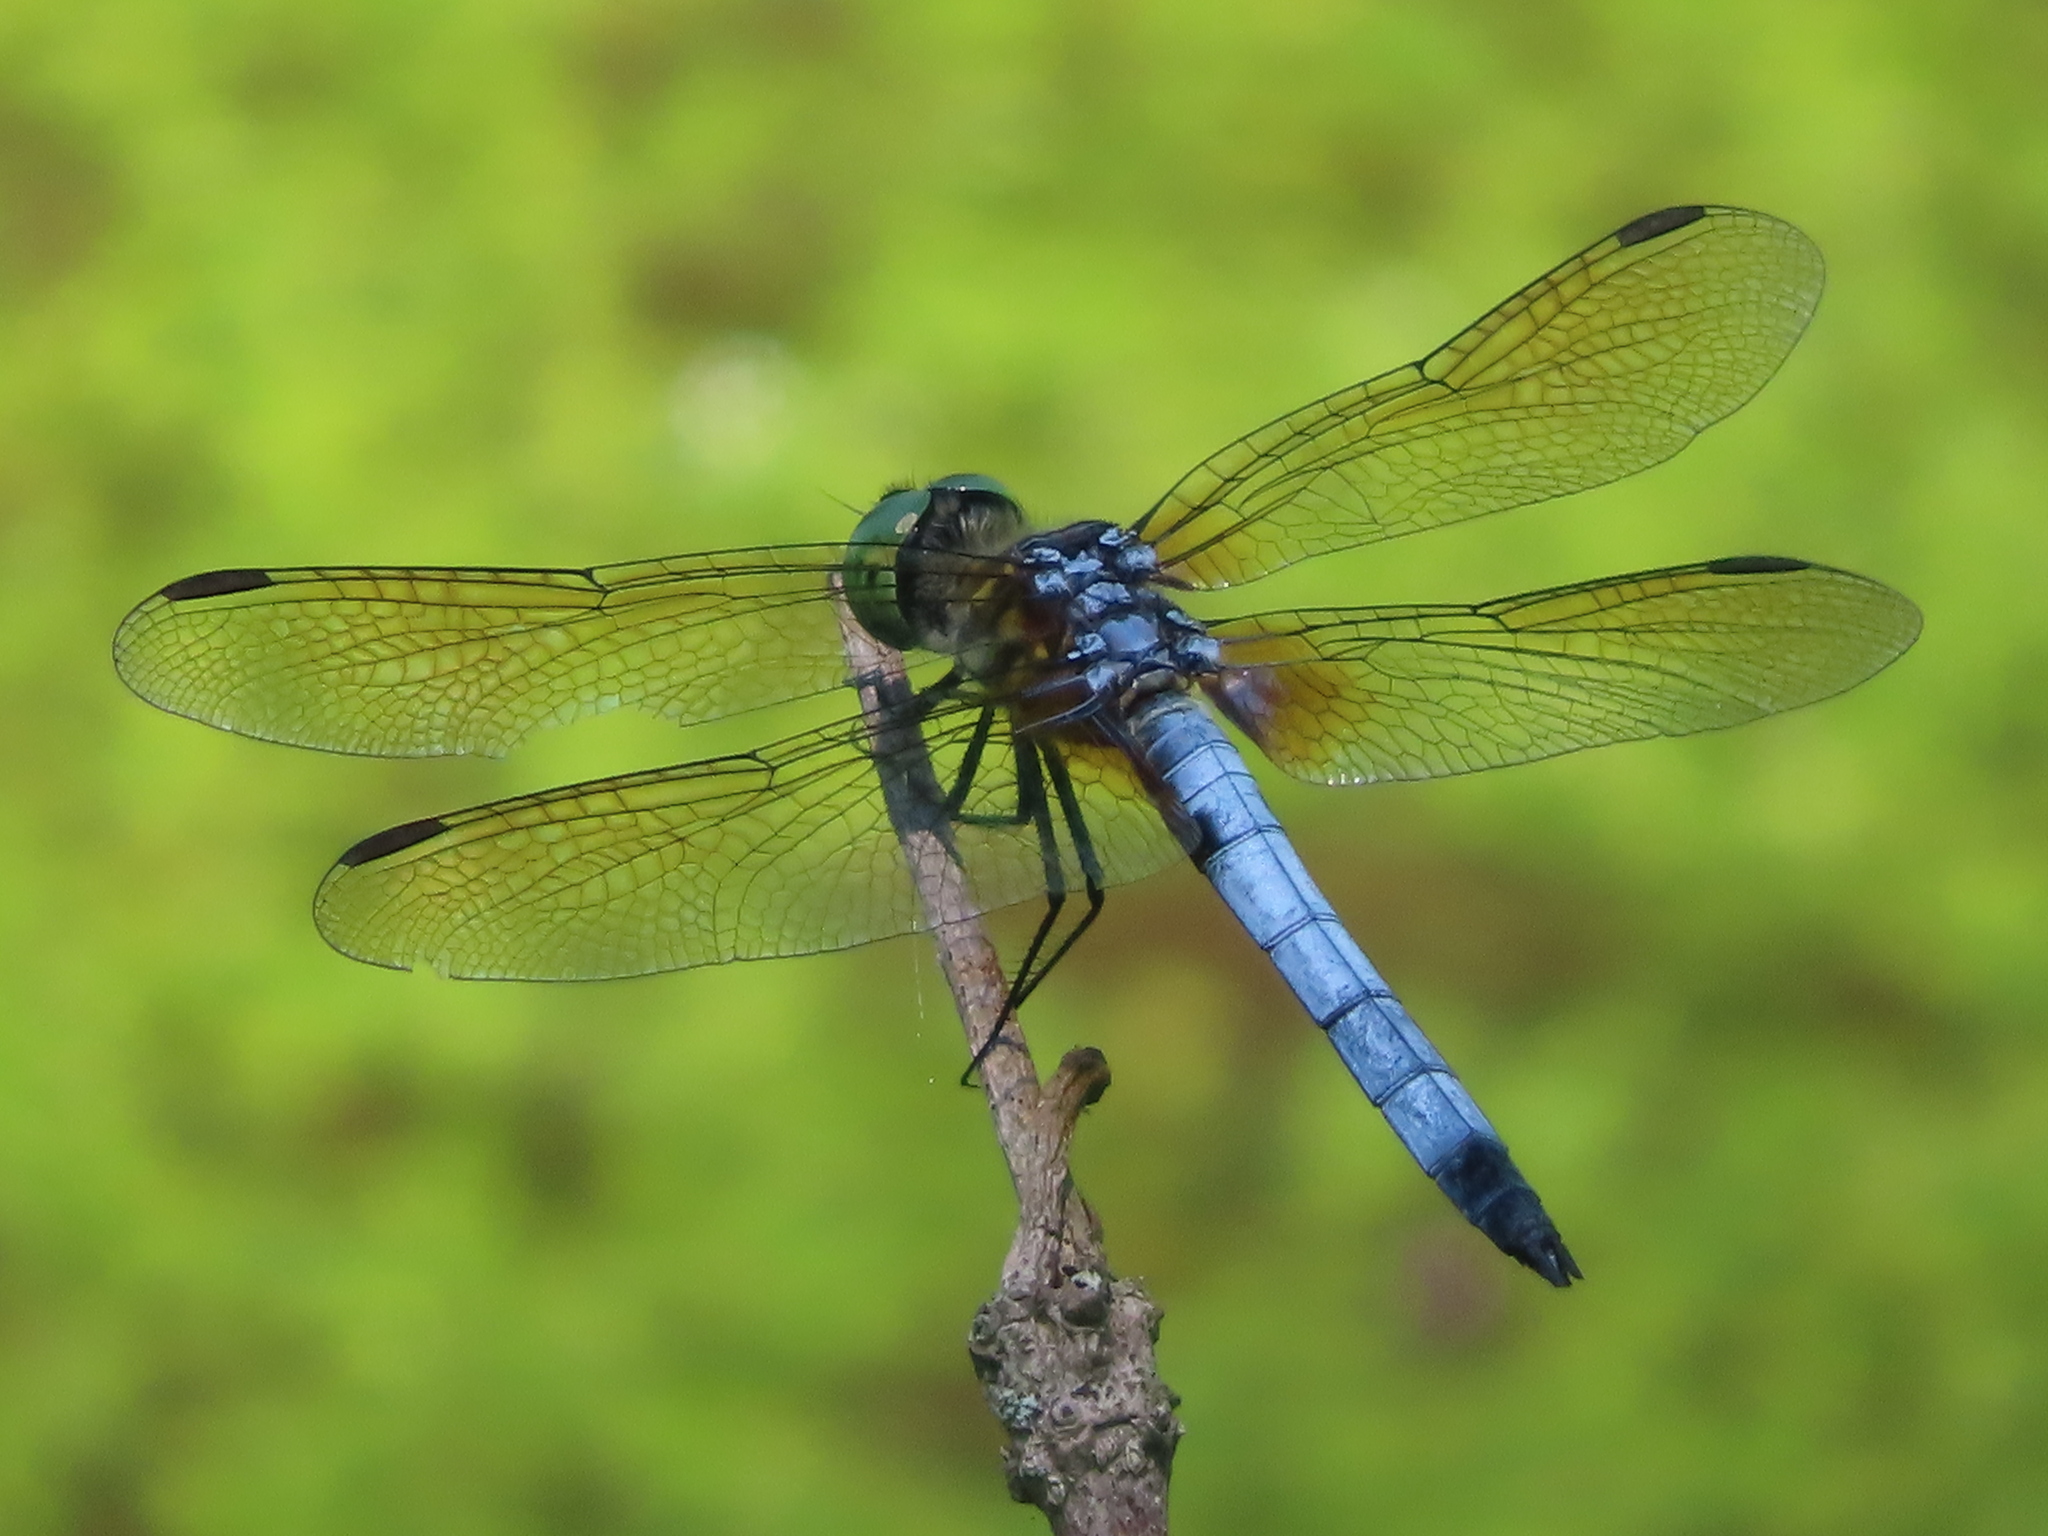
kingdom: Animalia
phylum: Arthropoda
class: Insecta
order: Odonata
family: Libellulidae
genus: Pachydiplax
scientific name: Pachydiplax longipennis
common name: Blue dasher
